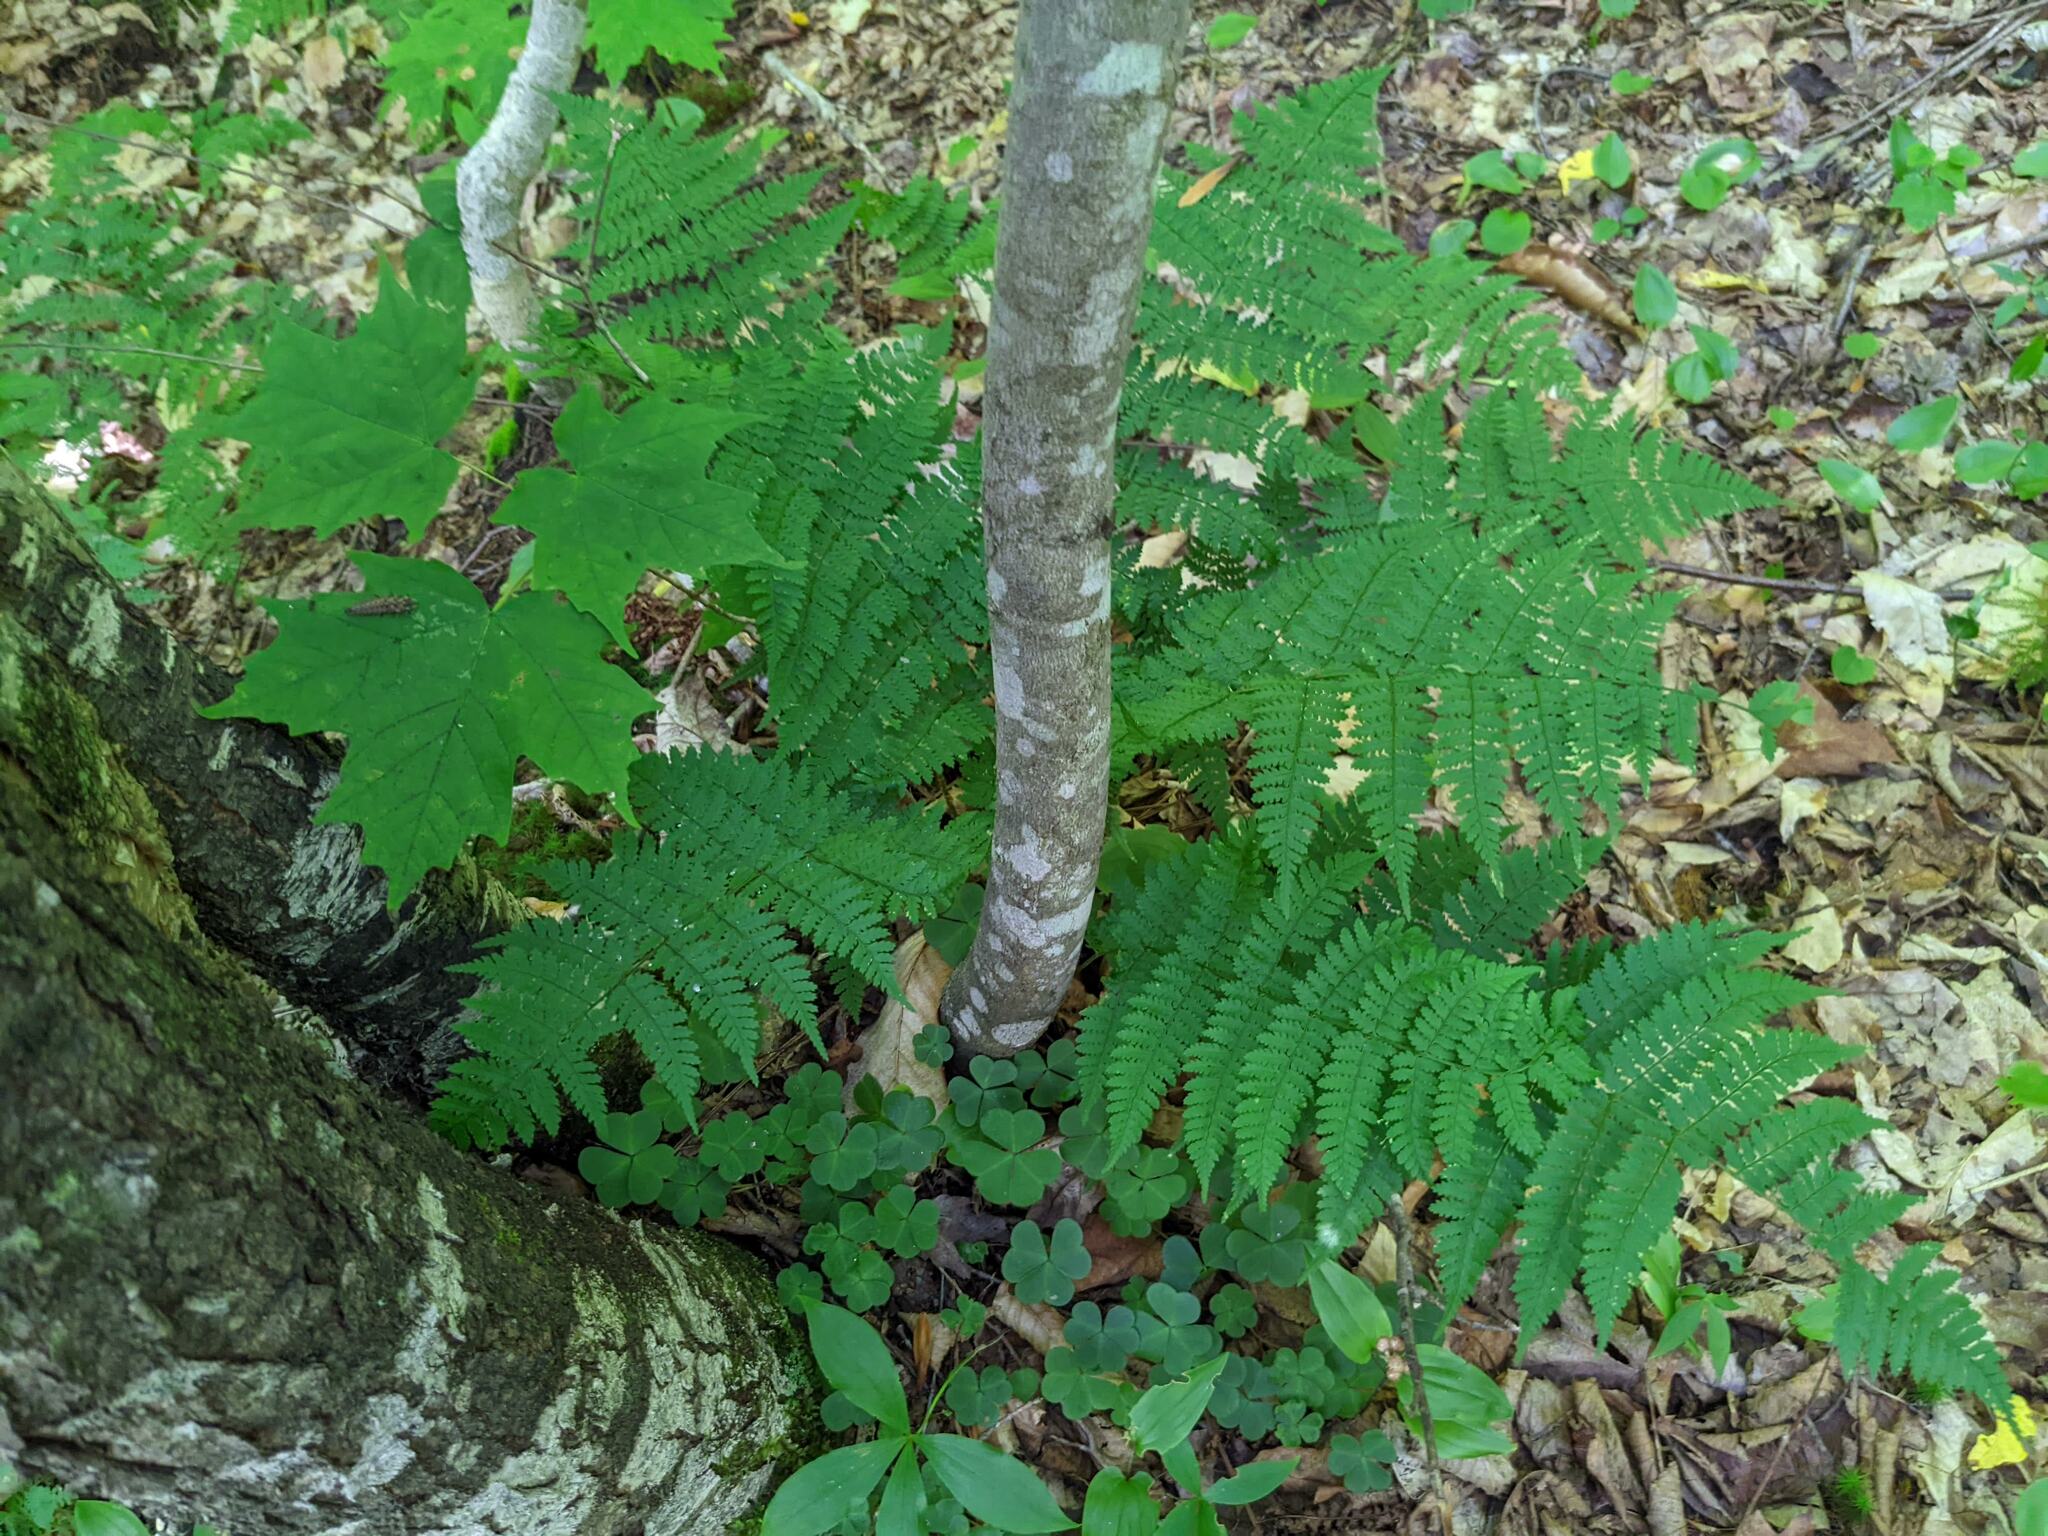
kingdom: Plantae
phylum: Tracheophyta
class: Polypodiopsida
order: Polypodiales
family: Dryopteridaceae
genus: Dryopteris
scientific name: Dryopteris intermedia
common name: Evergreen wood fern
